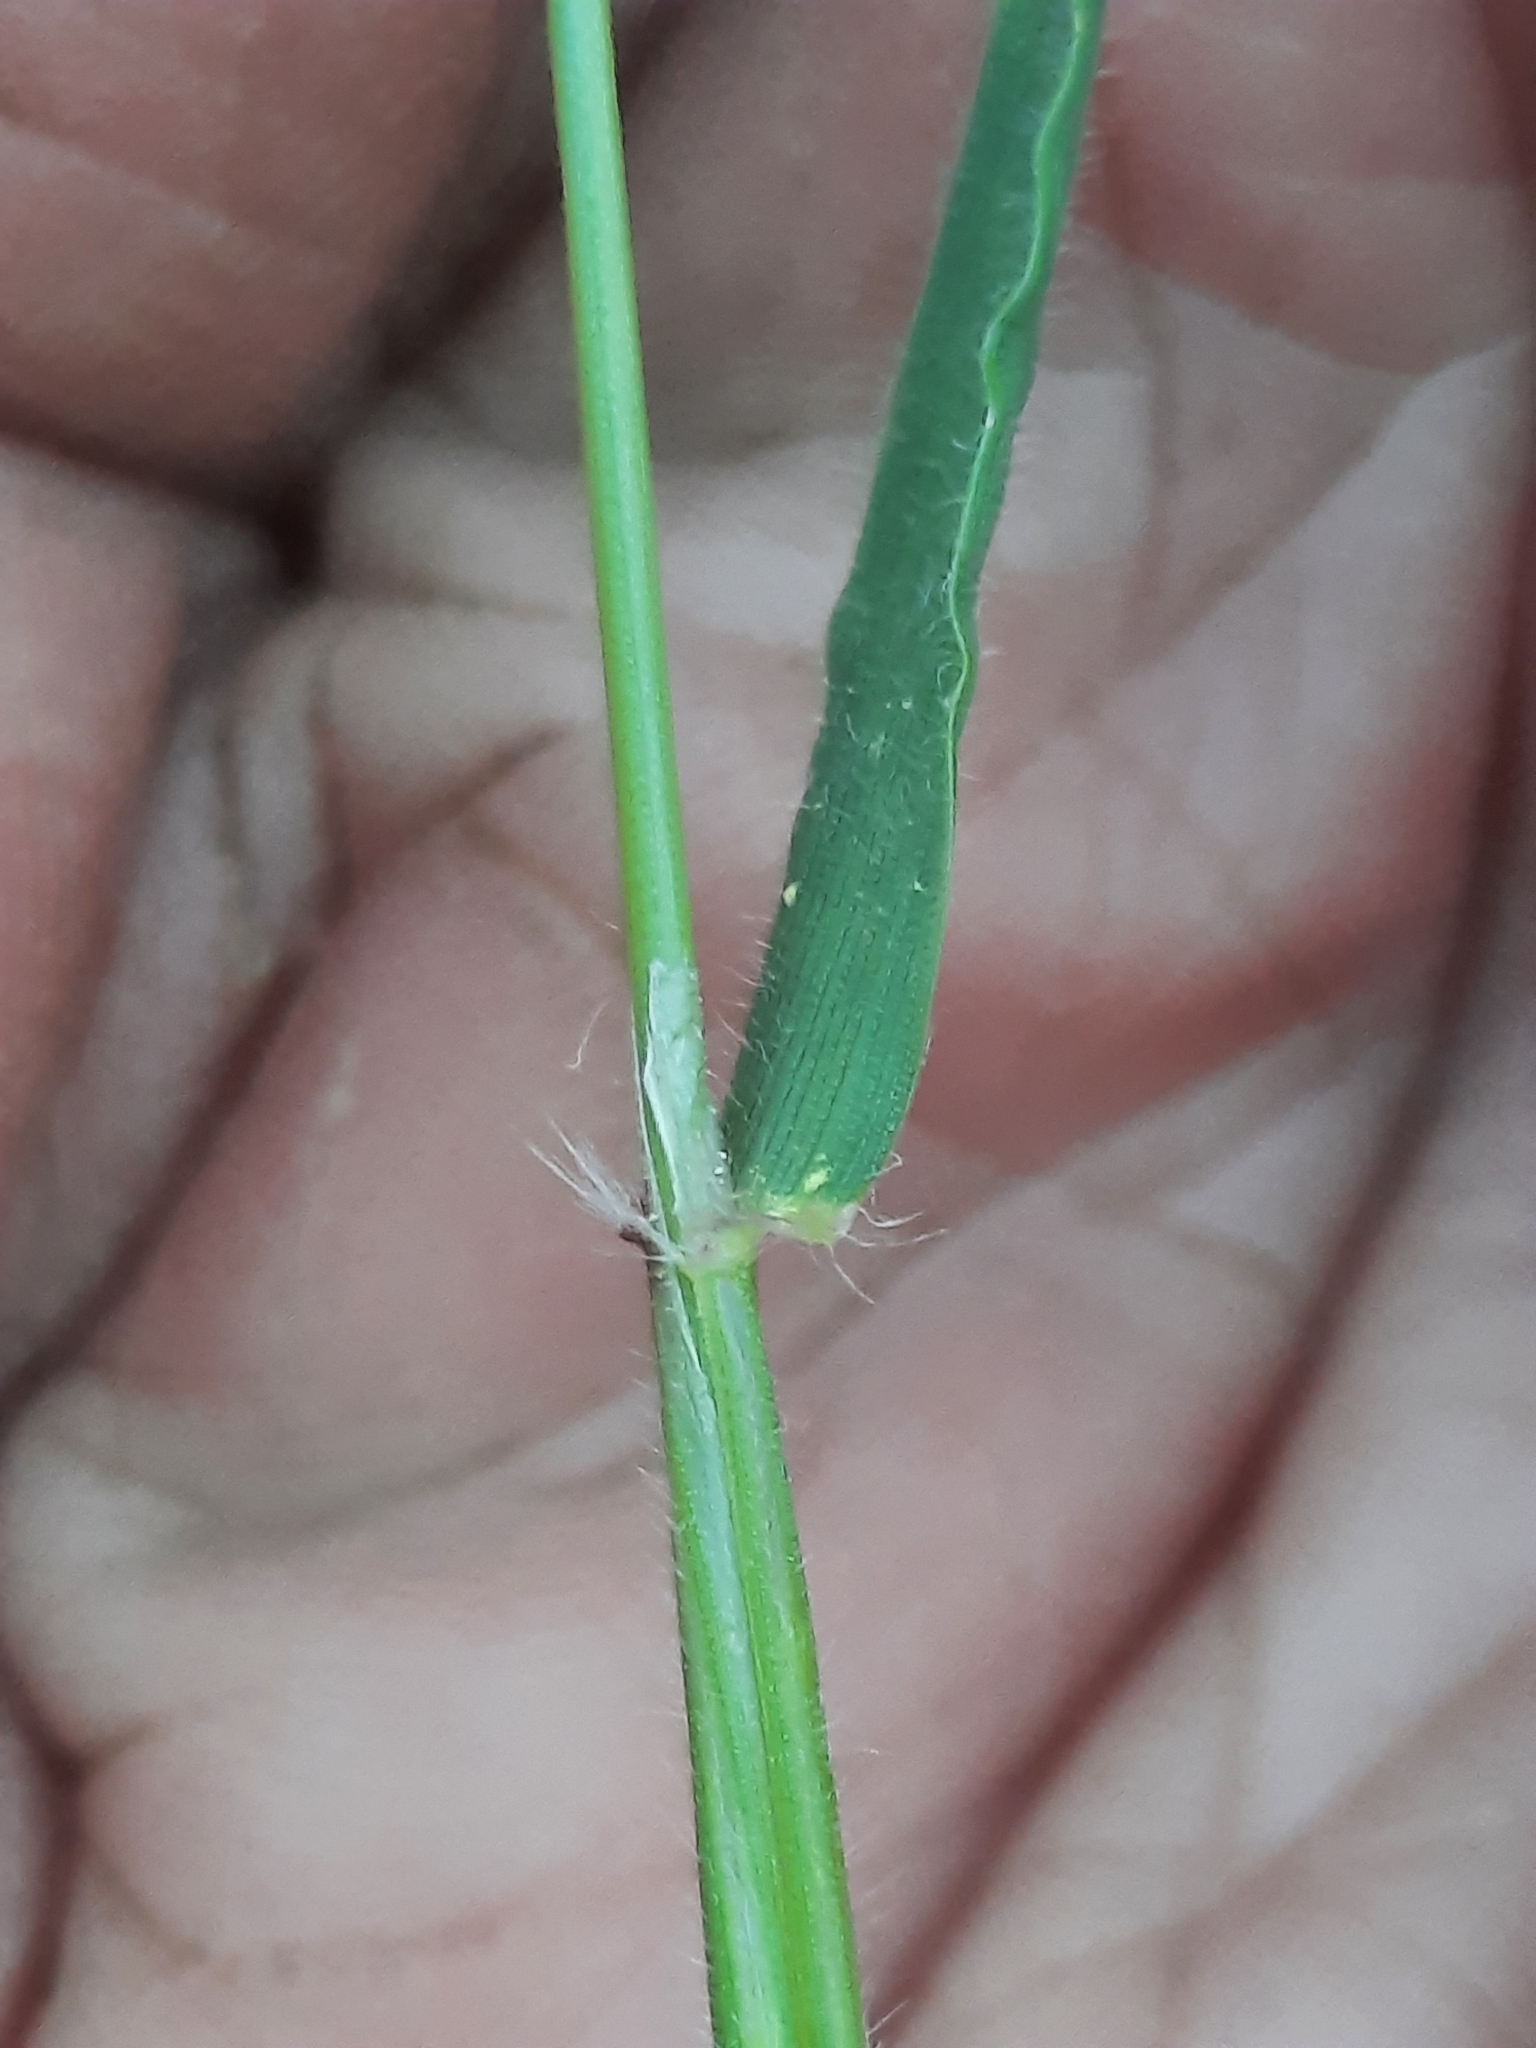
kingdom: Plantae
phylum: Tracheophyta
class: Liliopsida
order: Poales
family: Poaceae
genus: Anthoxanthum
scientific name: Anthoxanthum odoratum
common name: Sweet vernalgrass
